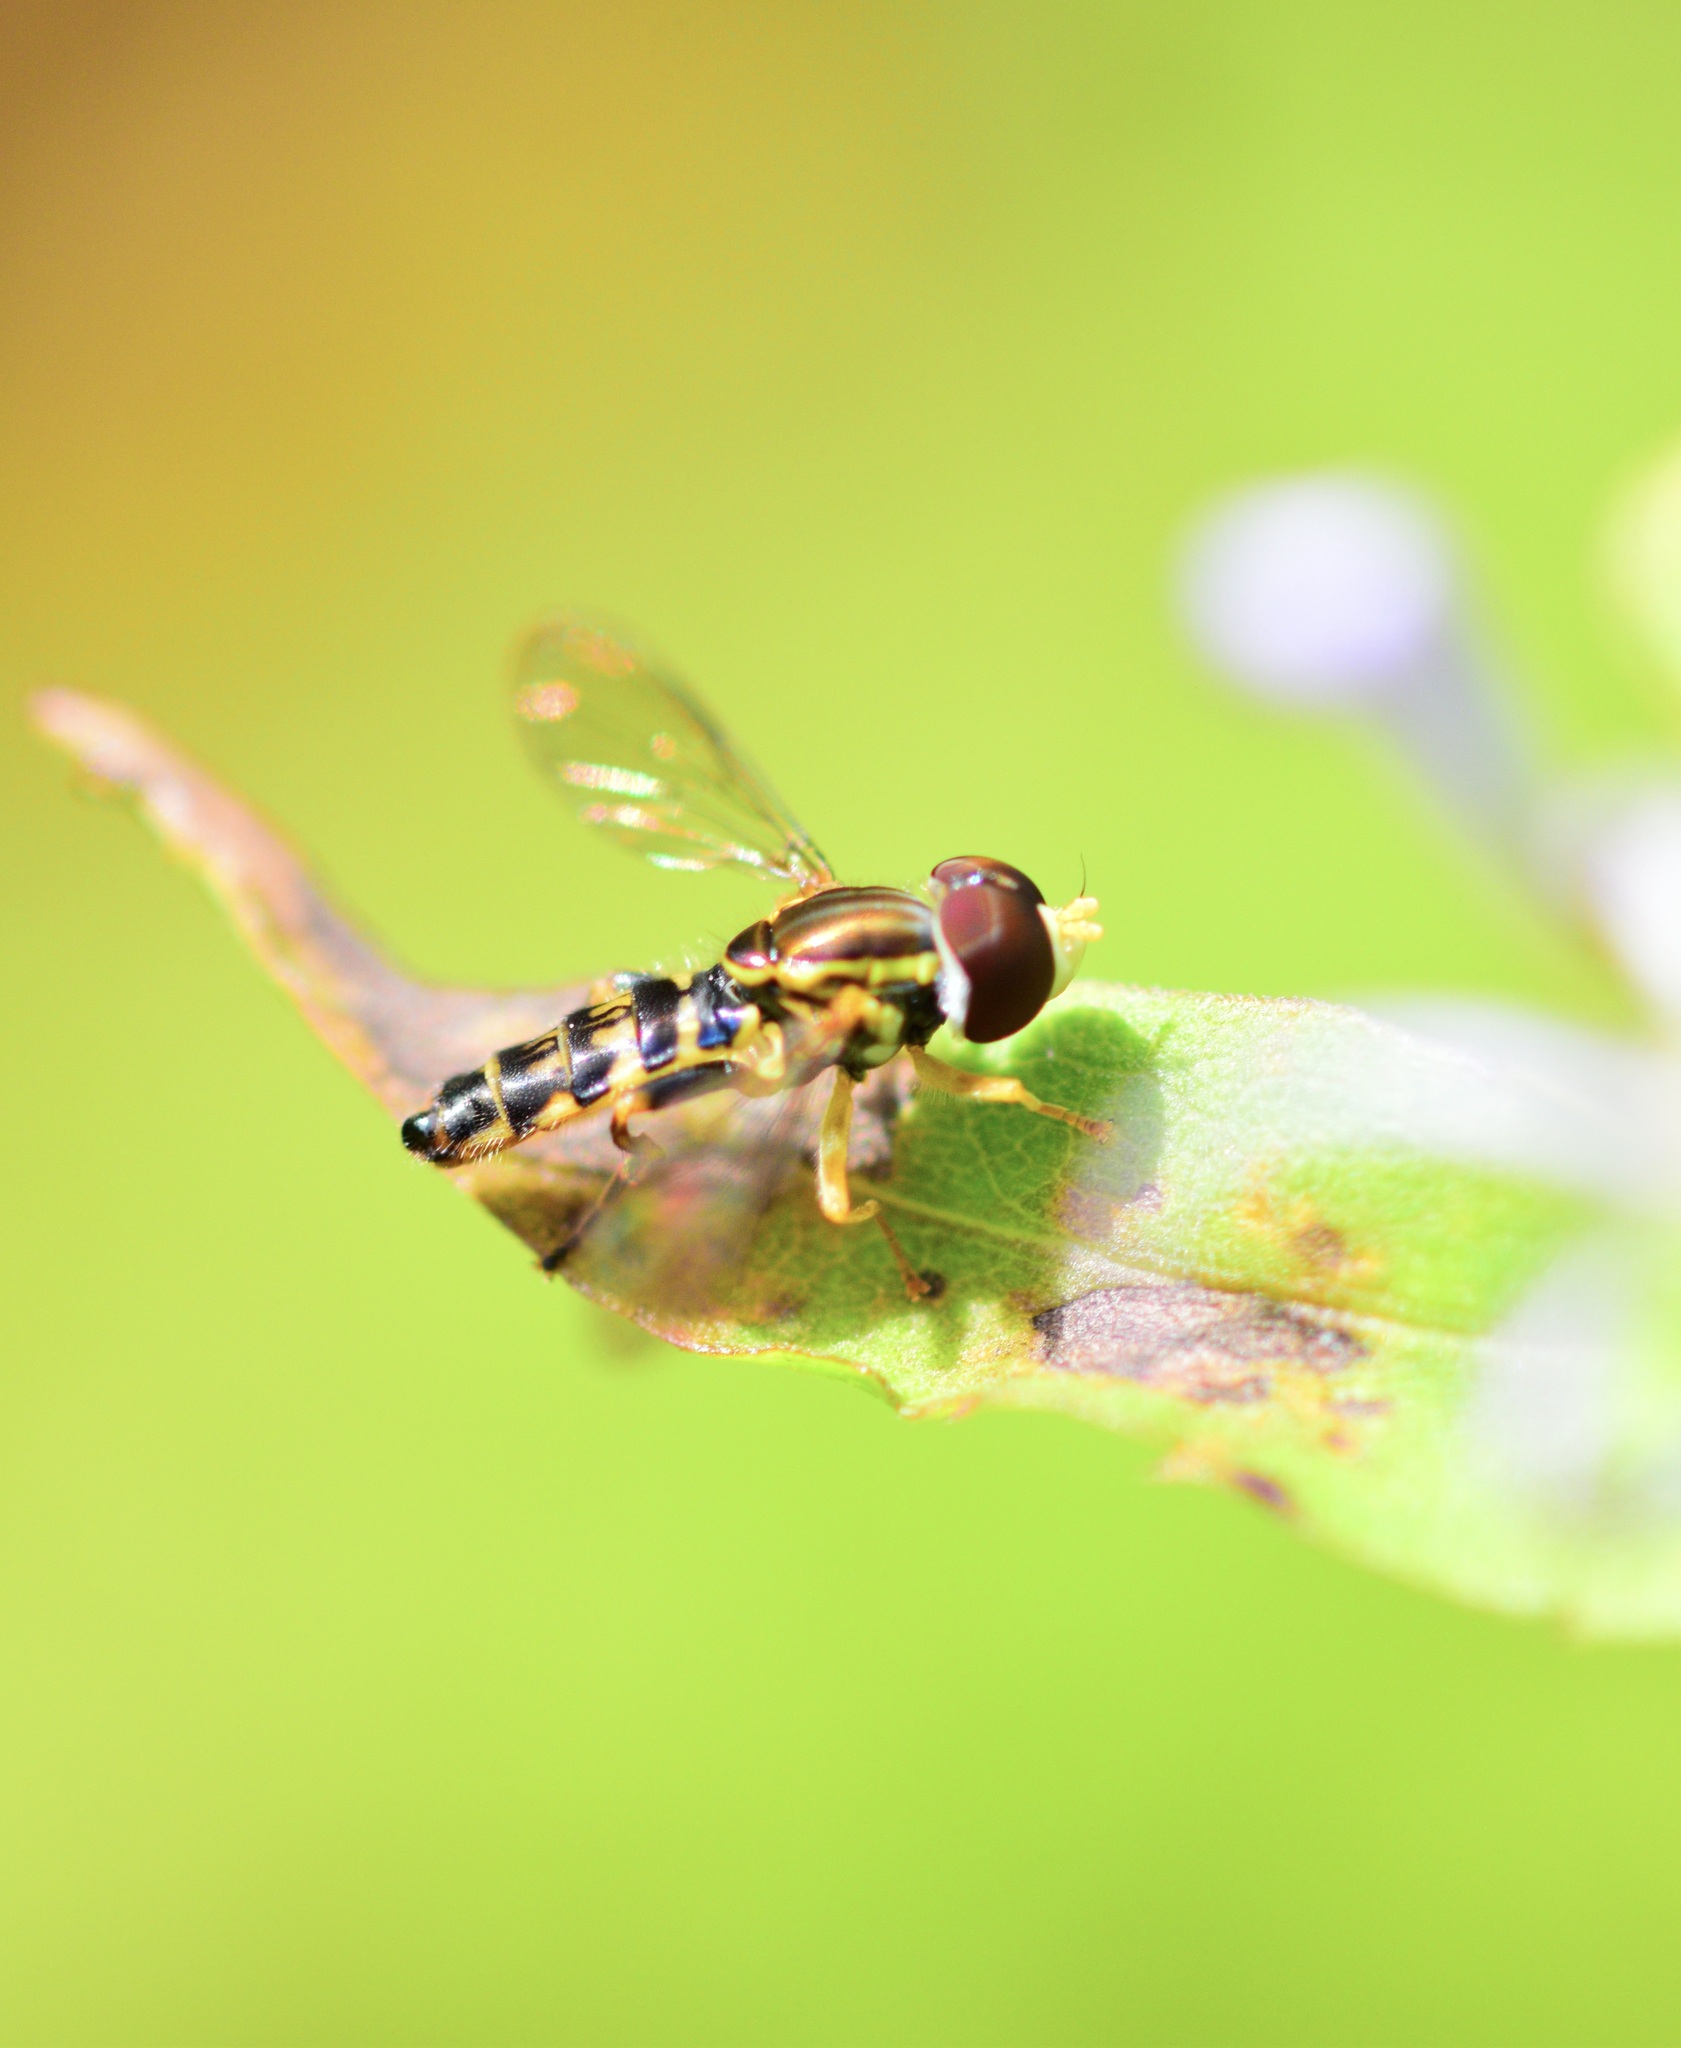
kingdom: Animalia
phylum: Arthropoda
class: Insecta
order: Diptera
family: Syrphidae
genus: Toxomerus
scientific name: Toxomerus geminatus
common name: Eastern calligrapher
